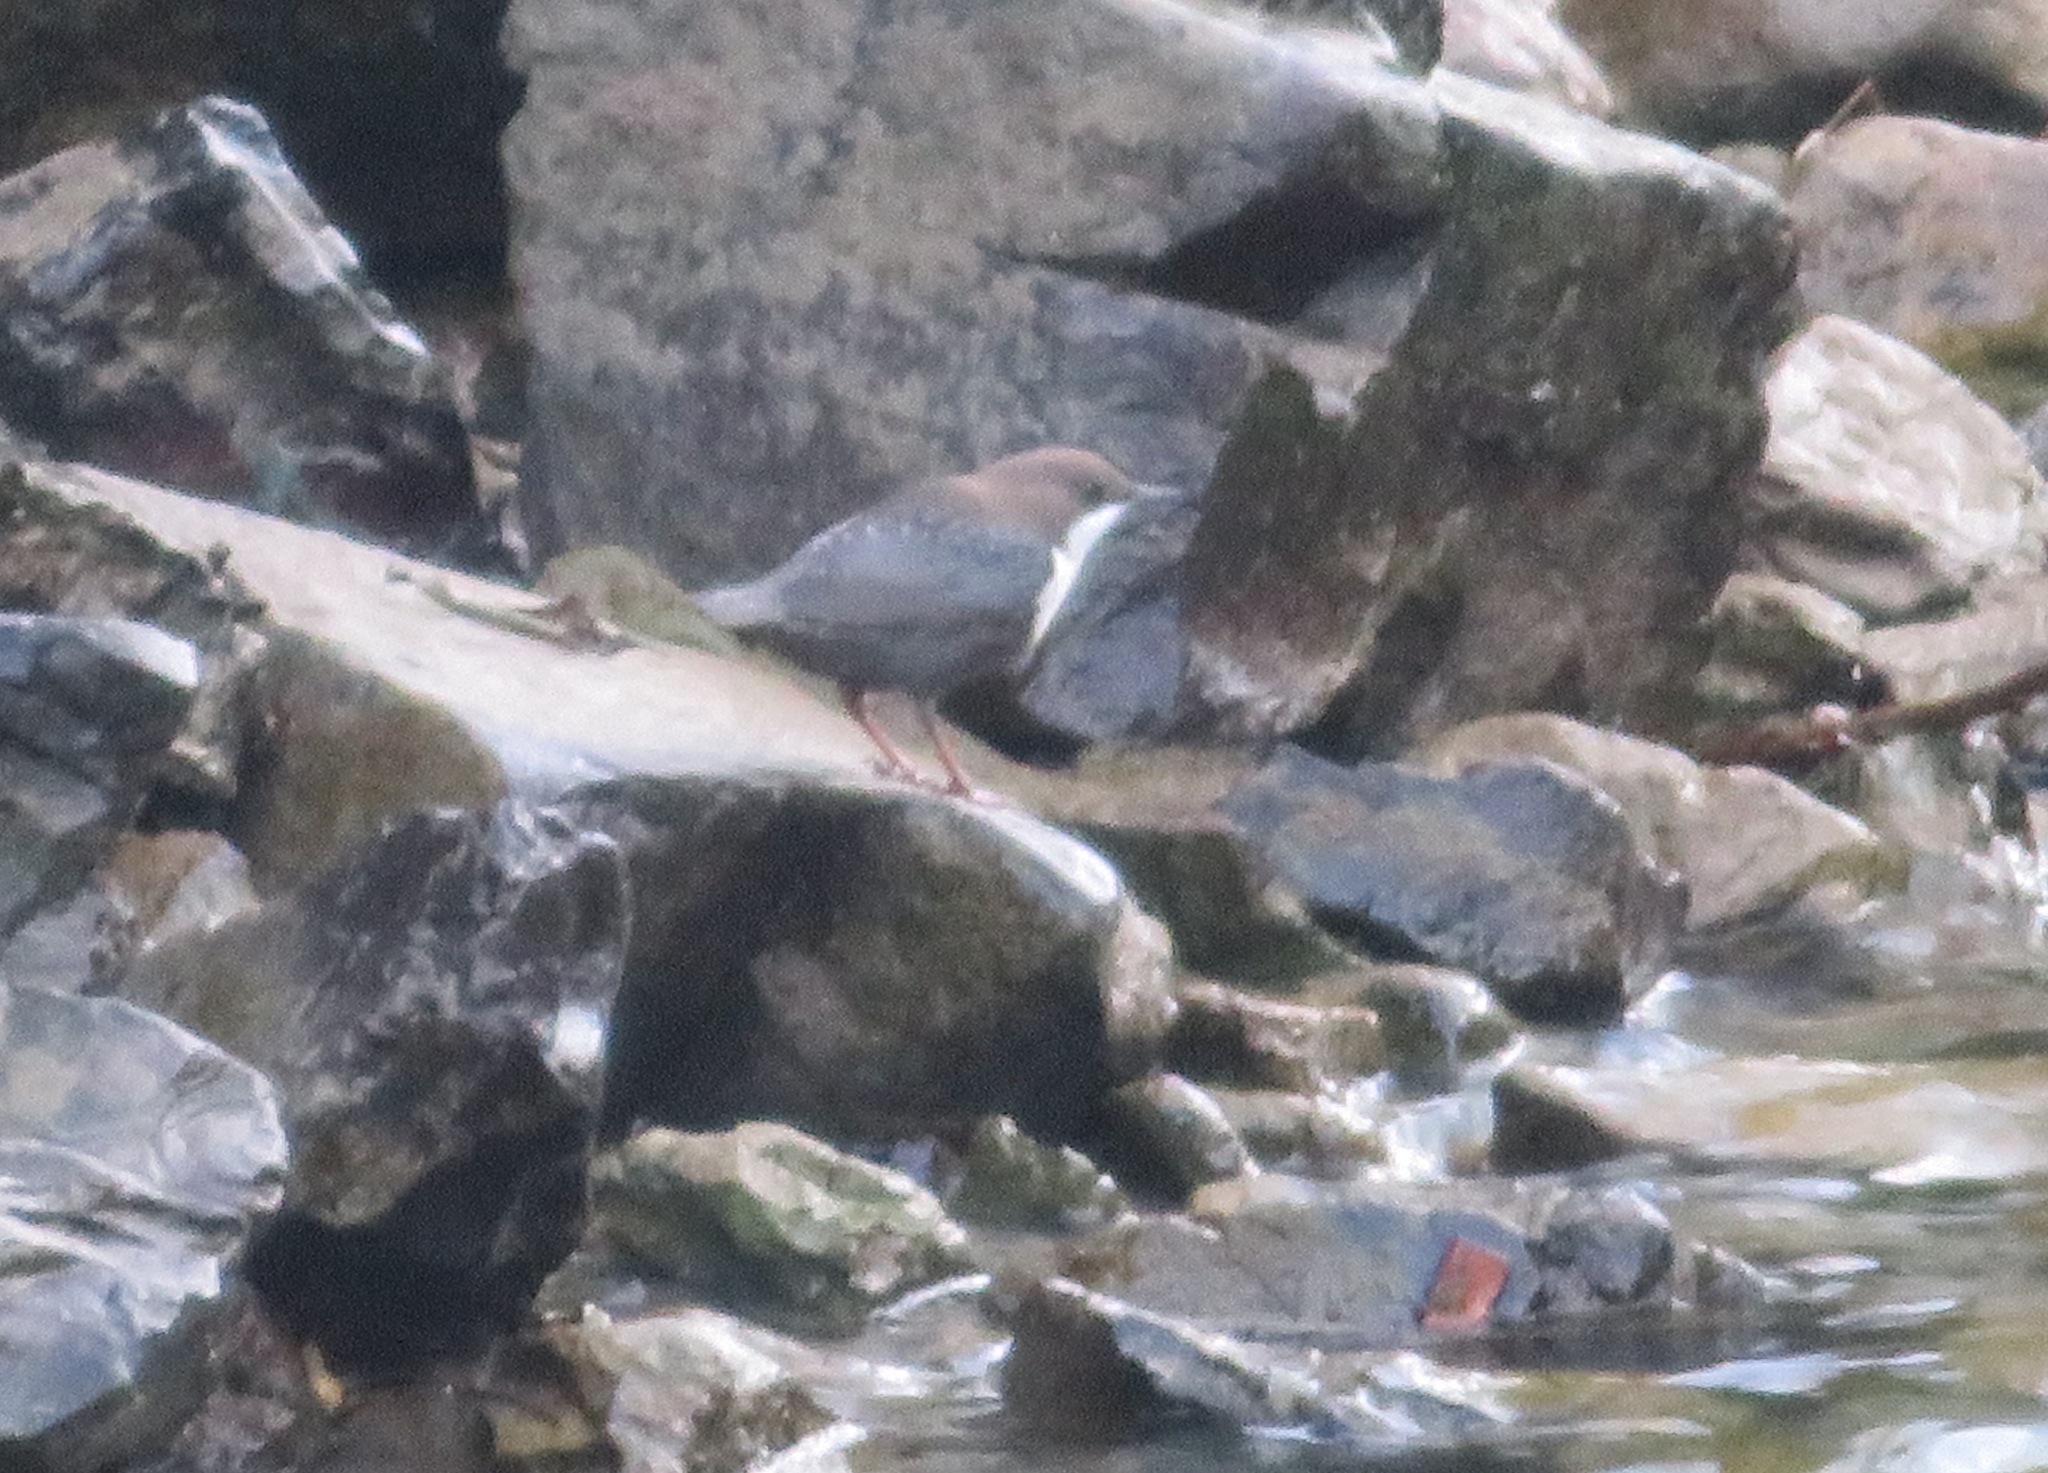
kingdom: Animalia
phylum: Chordata
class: Aves
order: Passeriformes
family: Cinclidae
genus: Cinclus
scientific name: Cinclus cinclus
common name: White-throated dipper
